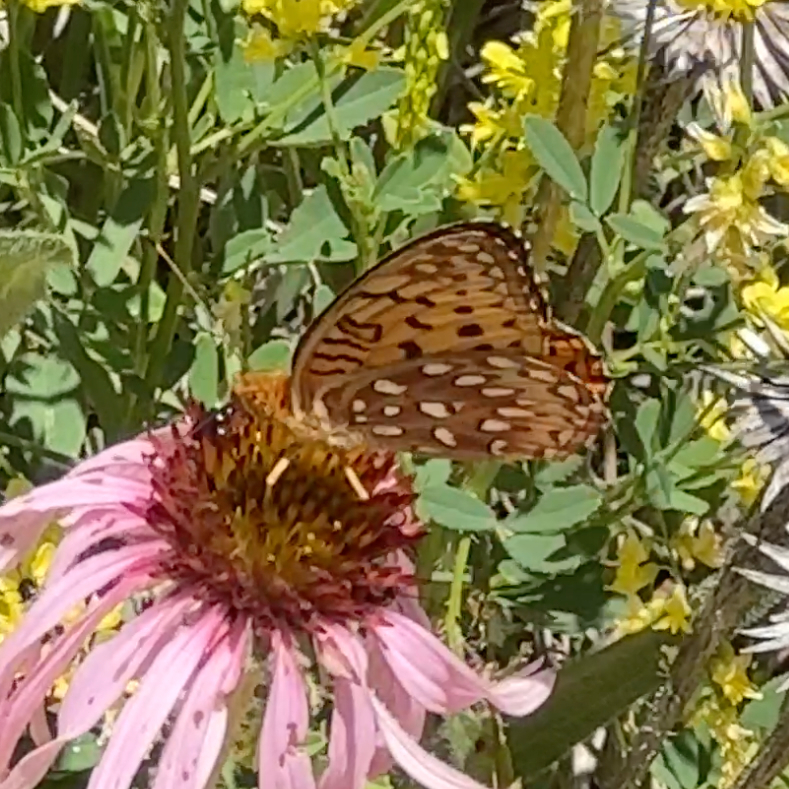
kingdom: Animalia
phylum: Arthropoda
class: Insecta
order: Lepidoptera
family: Nymphalidae
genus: Speyeria
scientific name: Speyeria aphrodite
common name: Aphrodite friitllary
